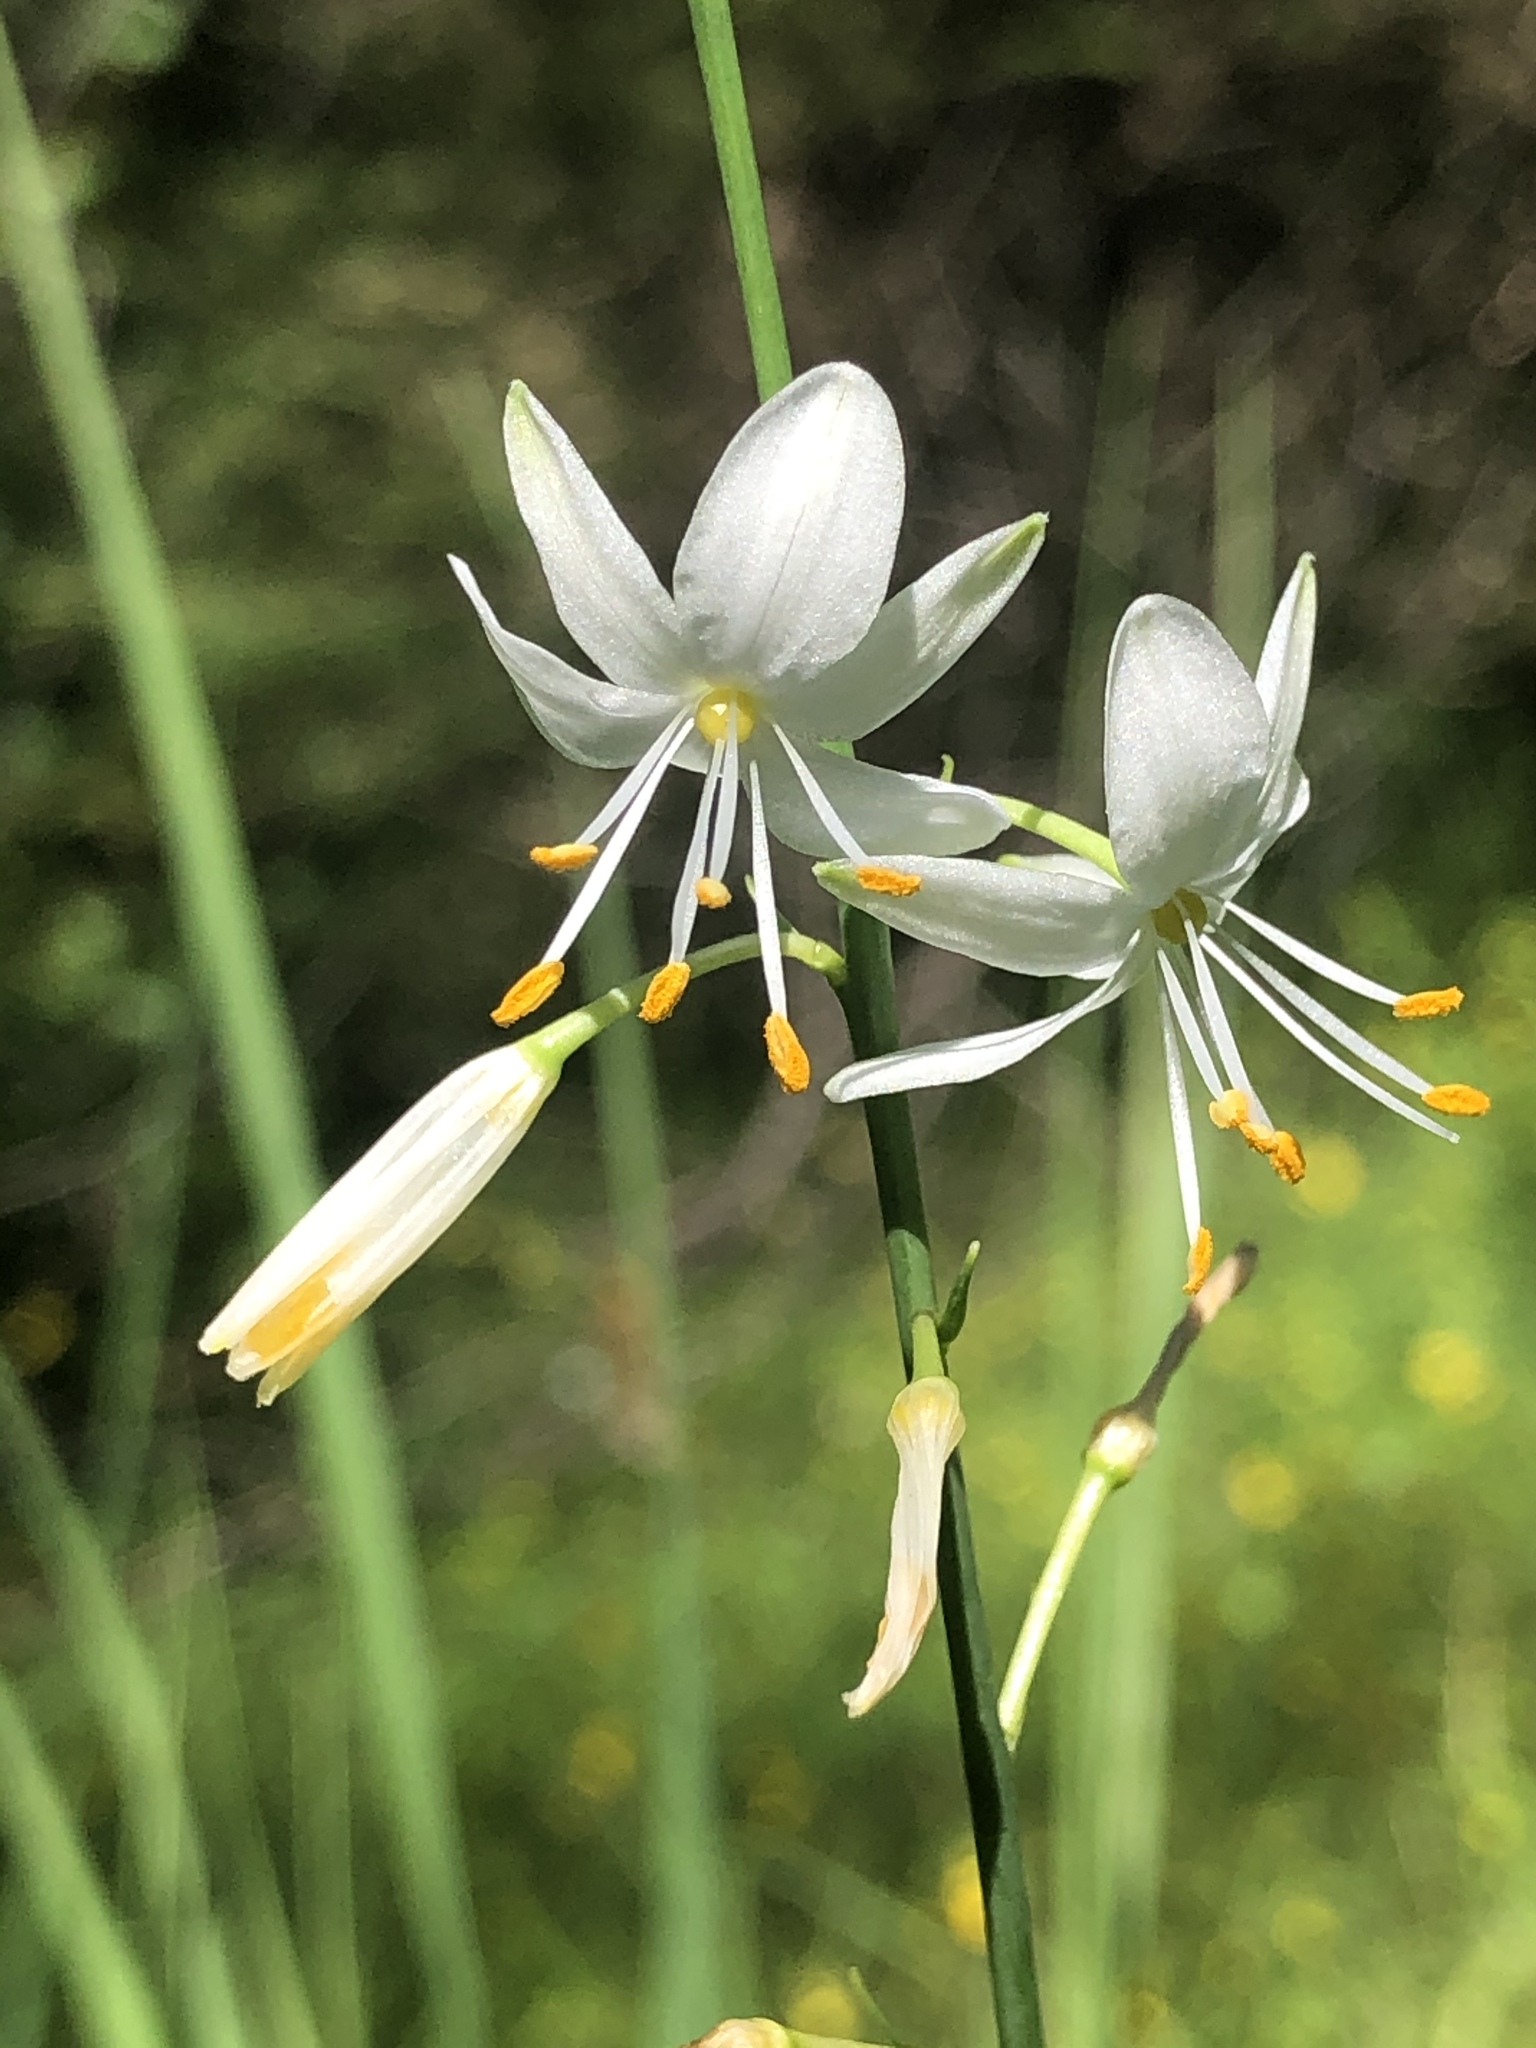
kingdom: Plantae
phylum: Tracheophyta
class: Liliopsida
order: Asparagales
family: Asparagaceae
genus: Anthericum
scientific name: Anthericum ramosum
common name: Branched st. bernard's-lily
